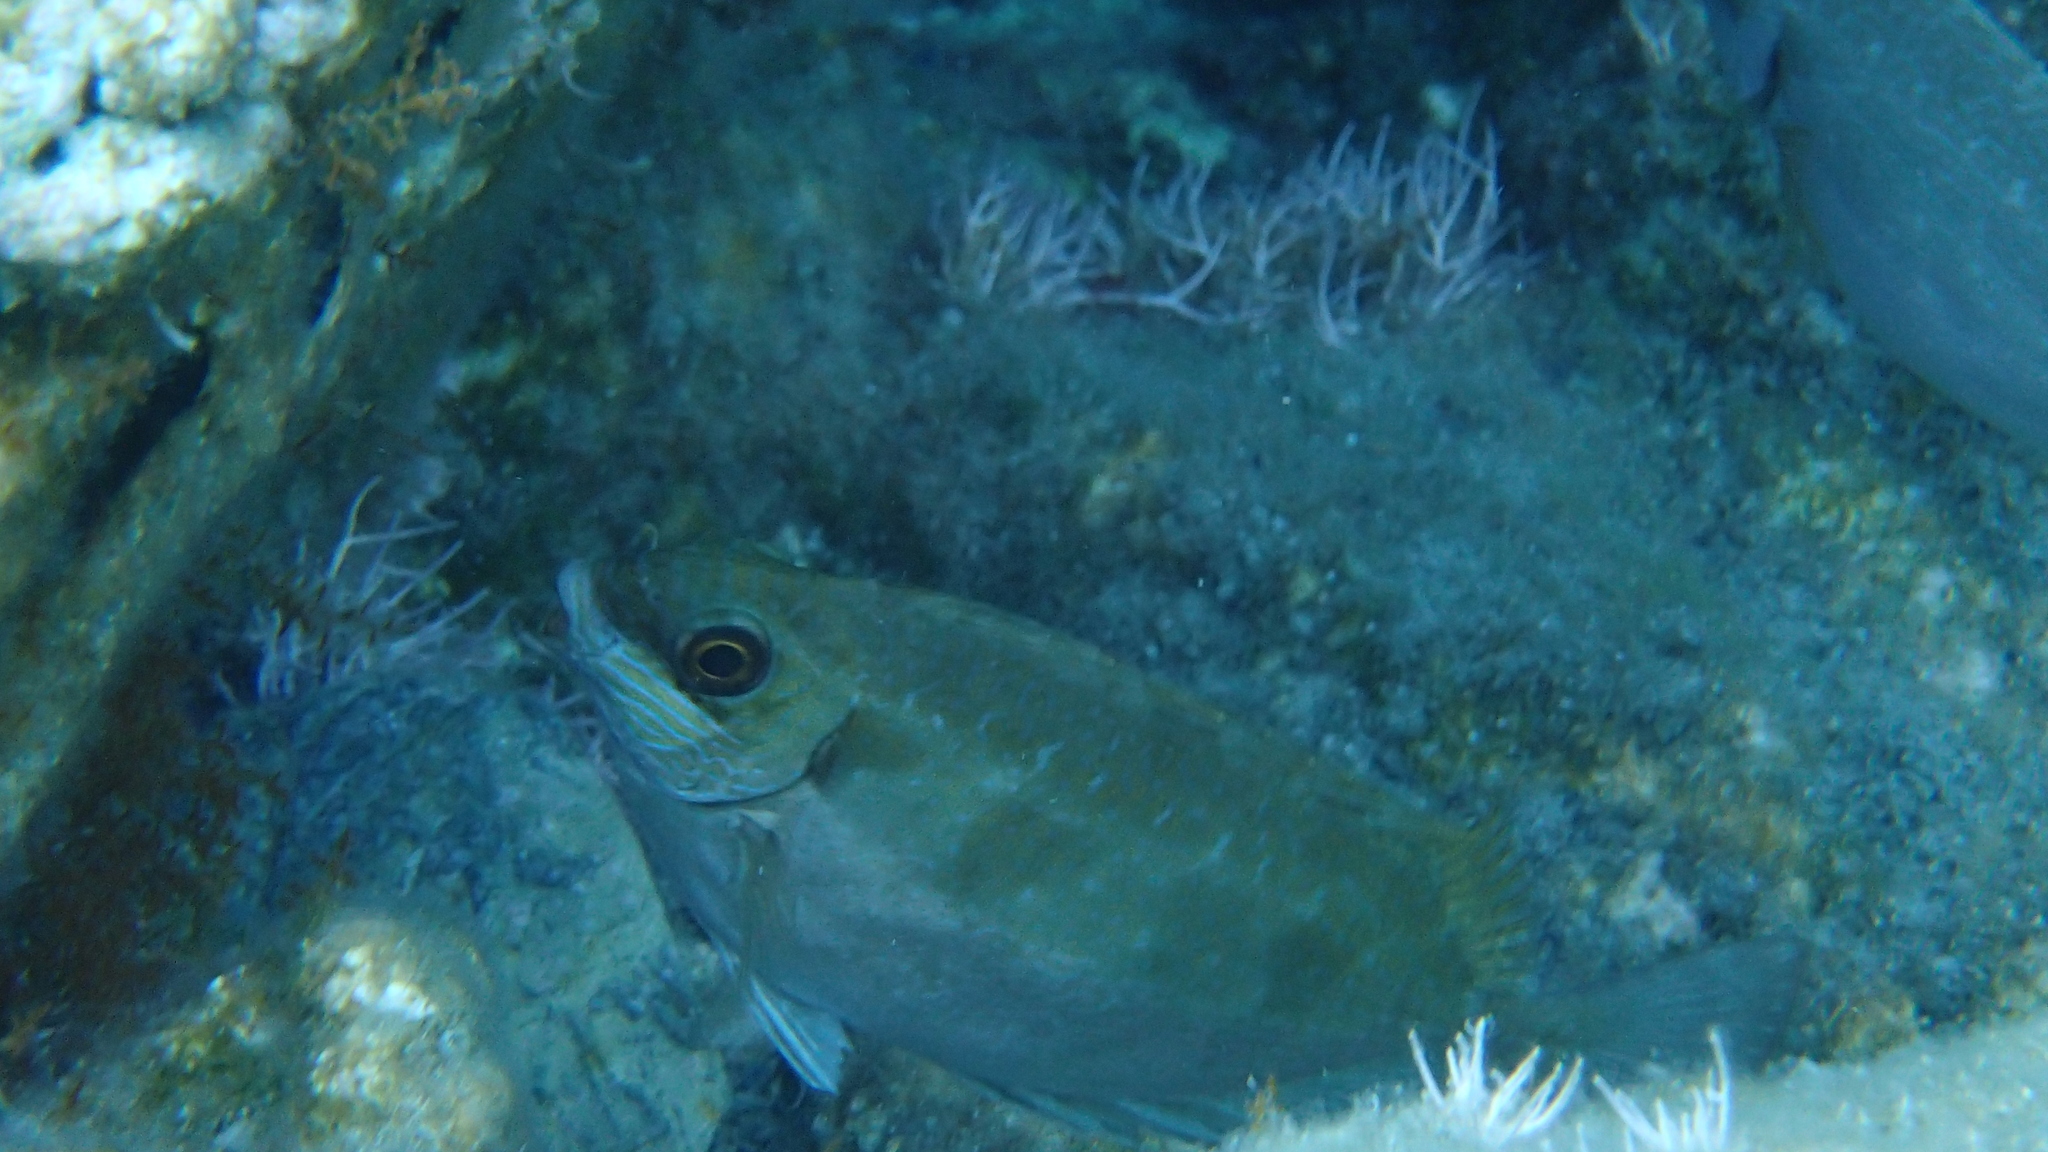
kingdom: Animalia
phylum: Chordata
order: Perciformes
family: Siganidae
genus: Siganus
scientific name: Siganus luridus
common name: Dusky spinefoot
